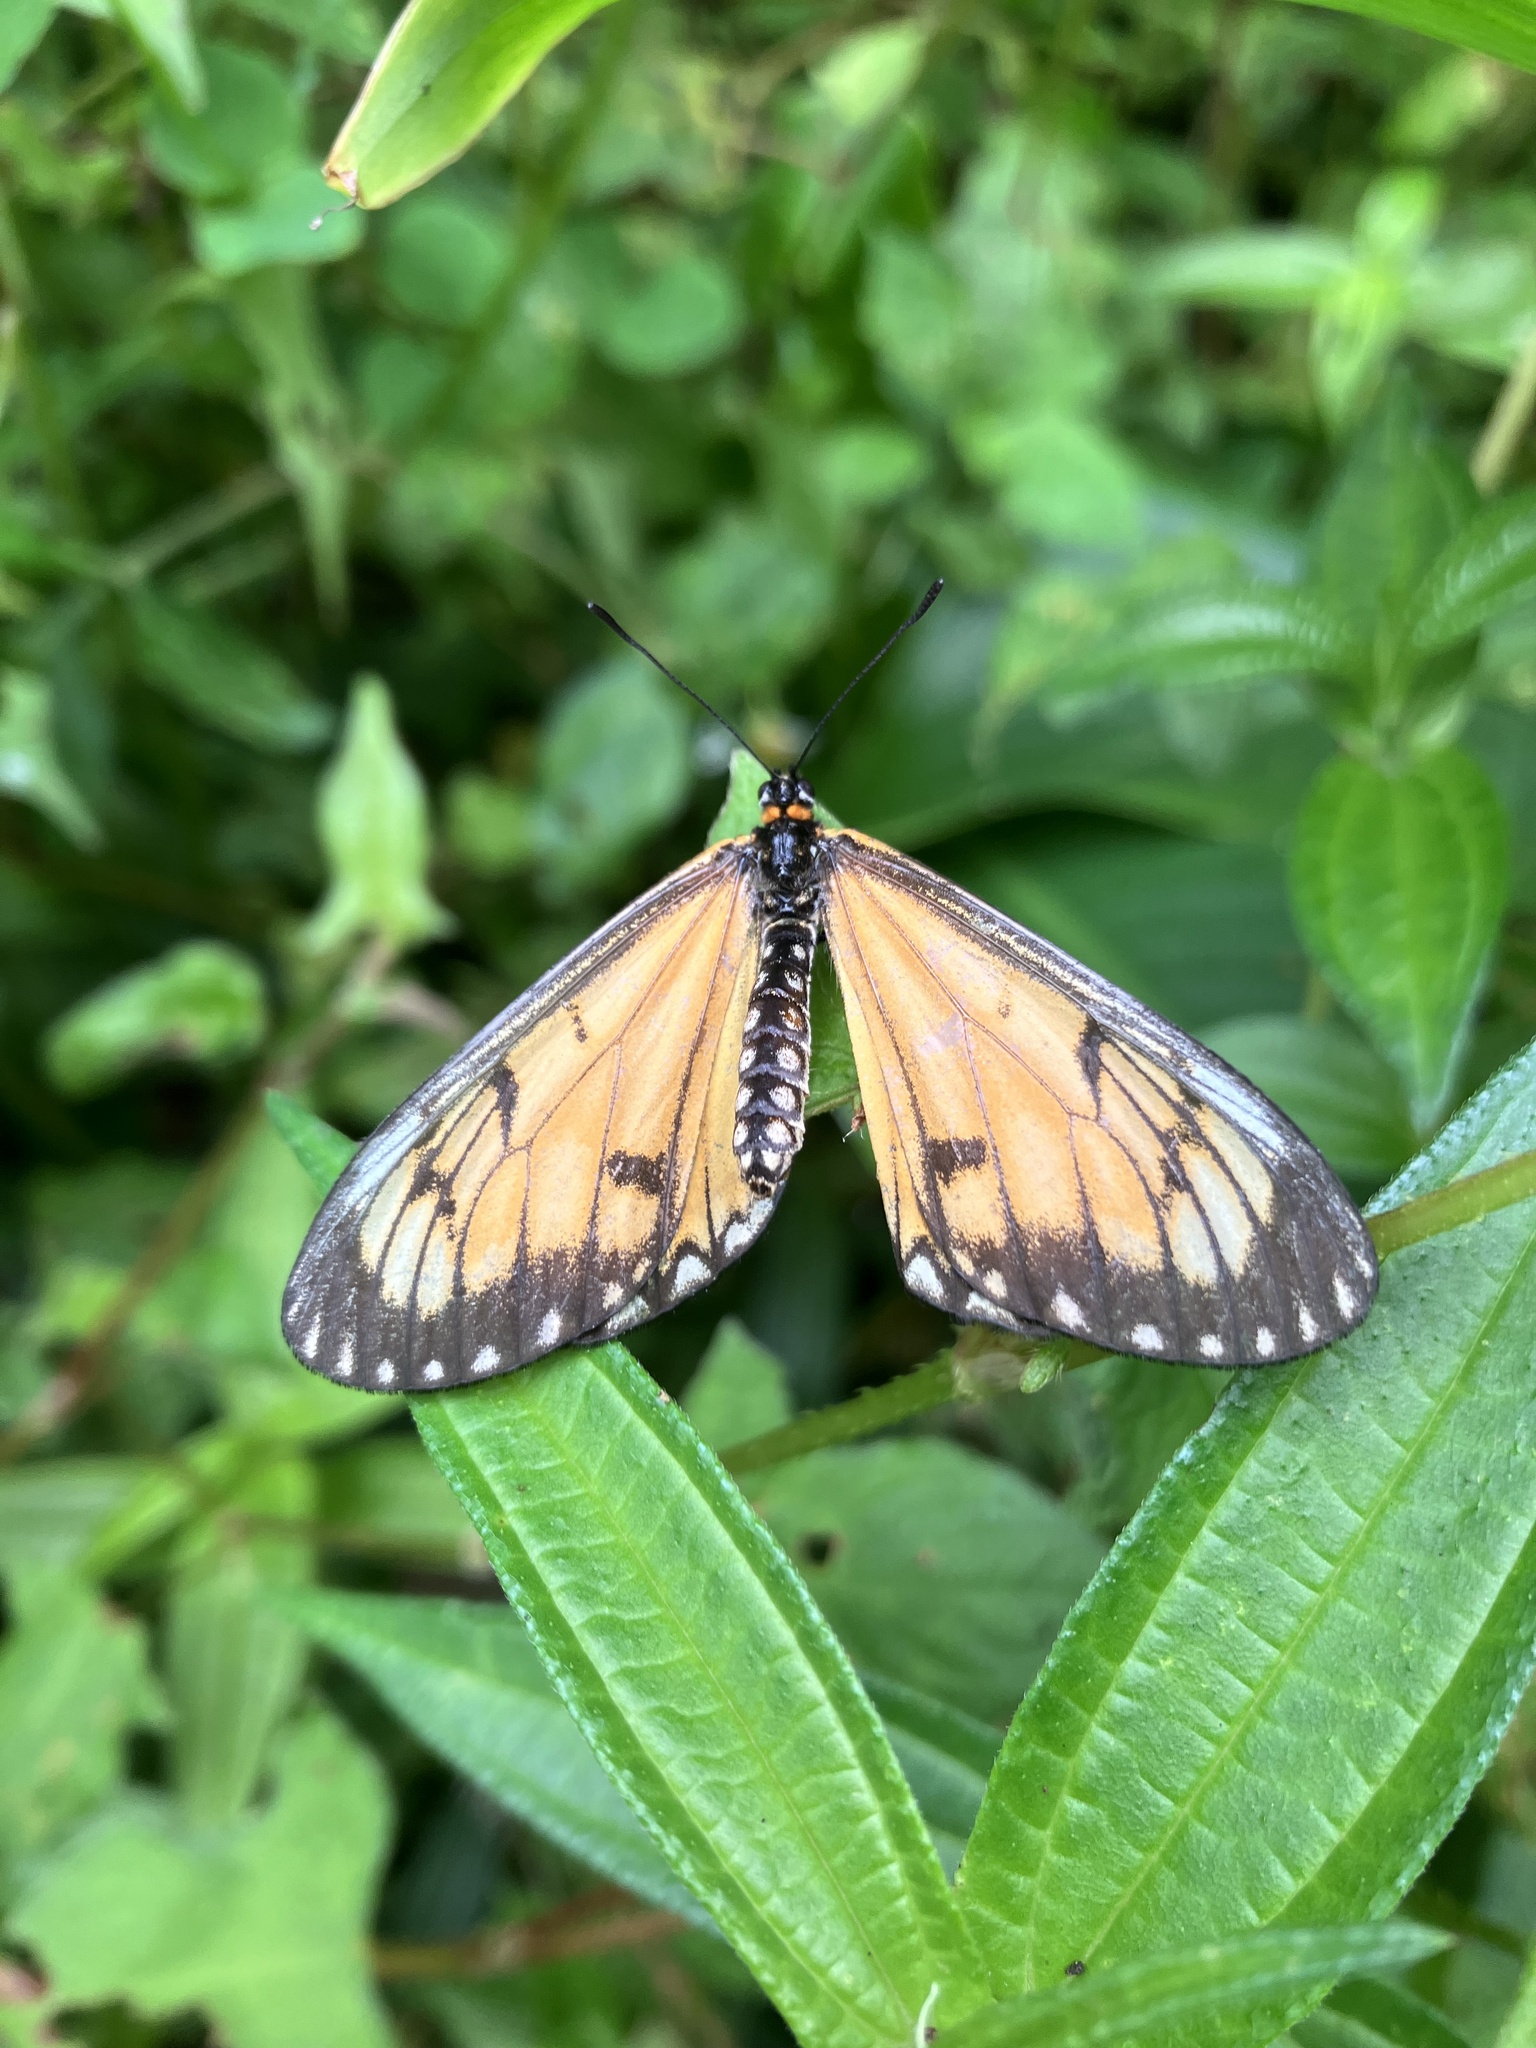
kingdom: Animalia
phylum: Arthropoda
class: Insecta
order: Lepidoptera
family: Nymphalidae
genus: Acraea
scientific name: Acraea Telchinia issoria
